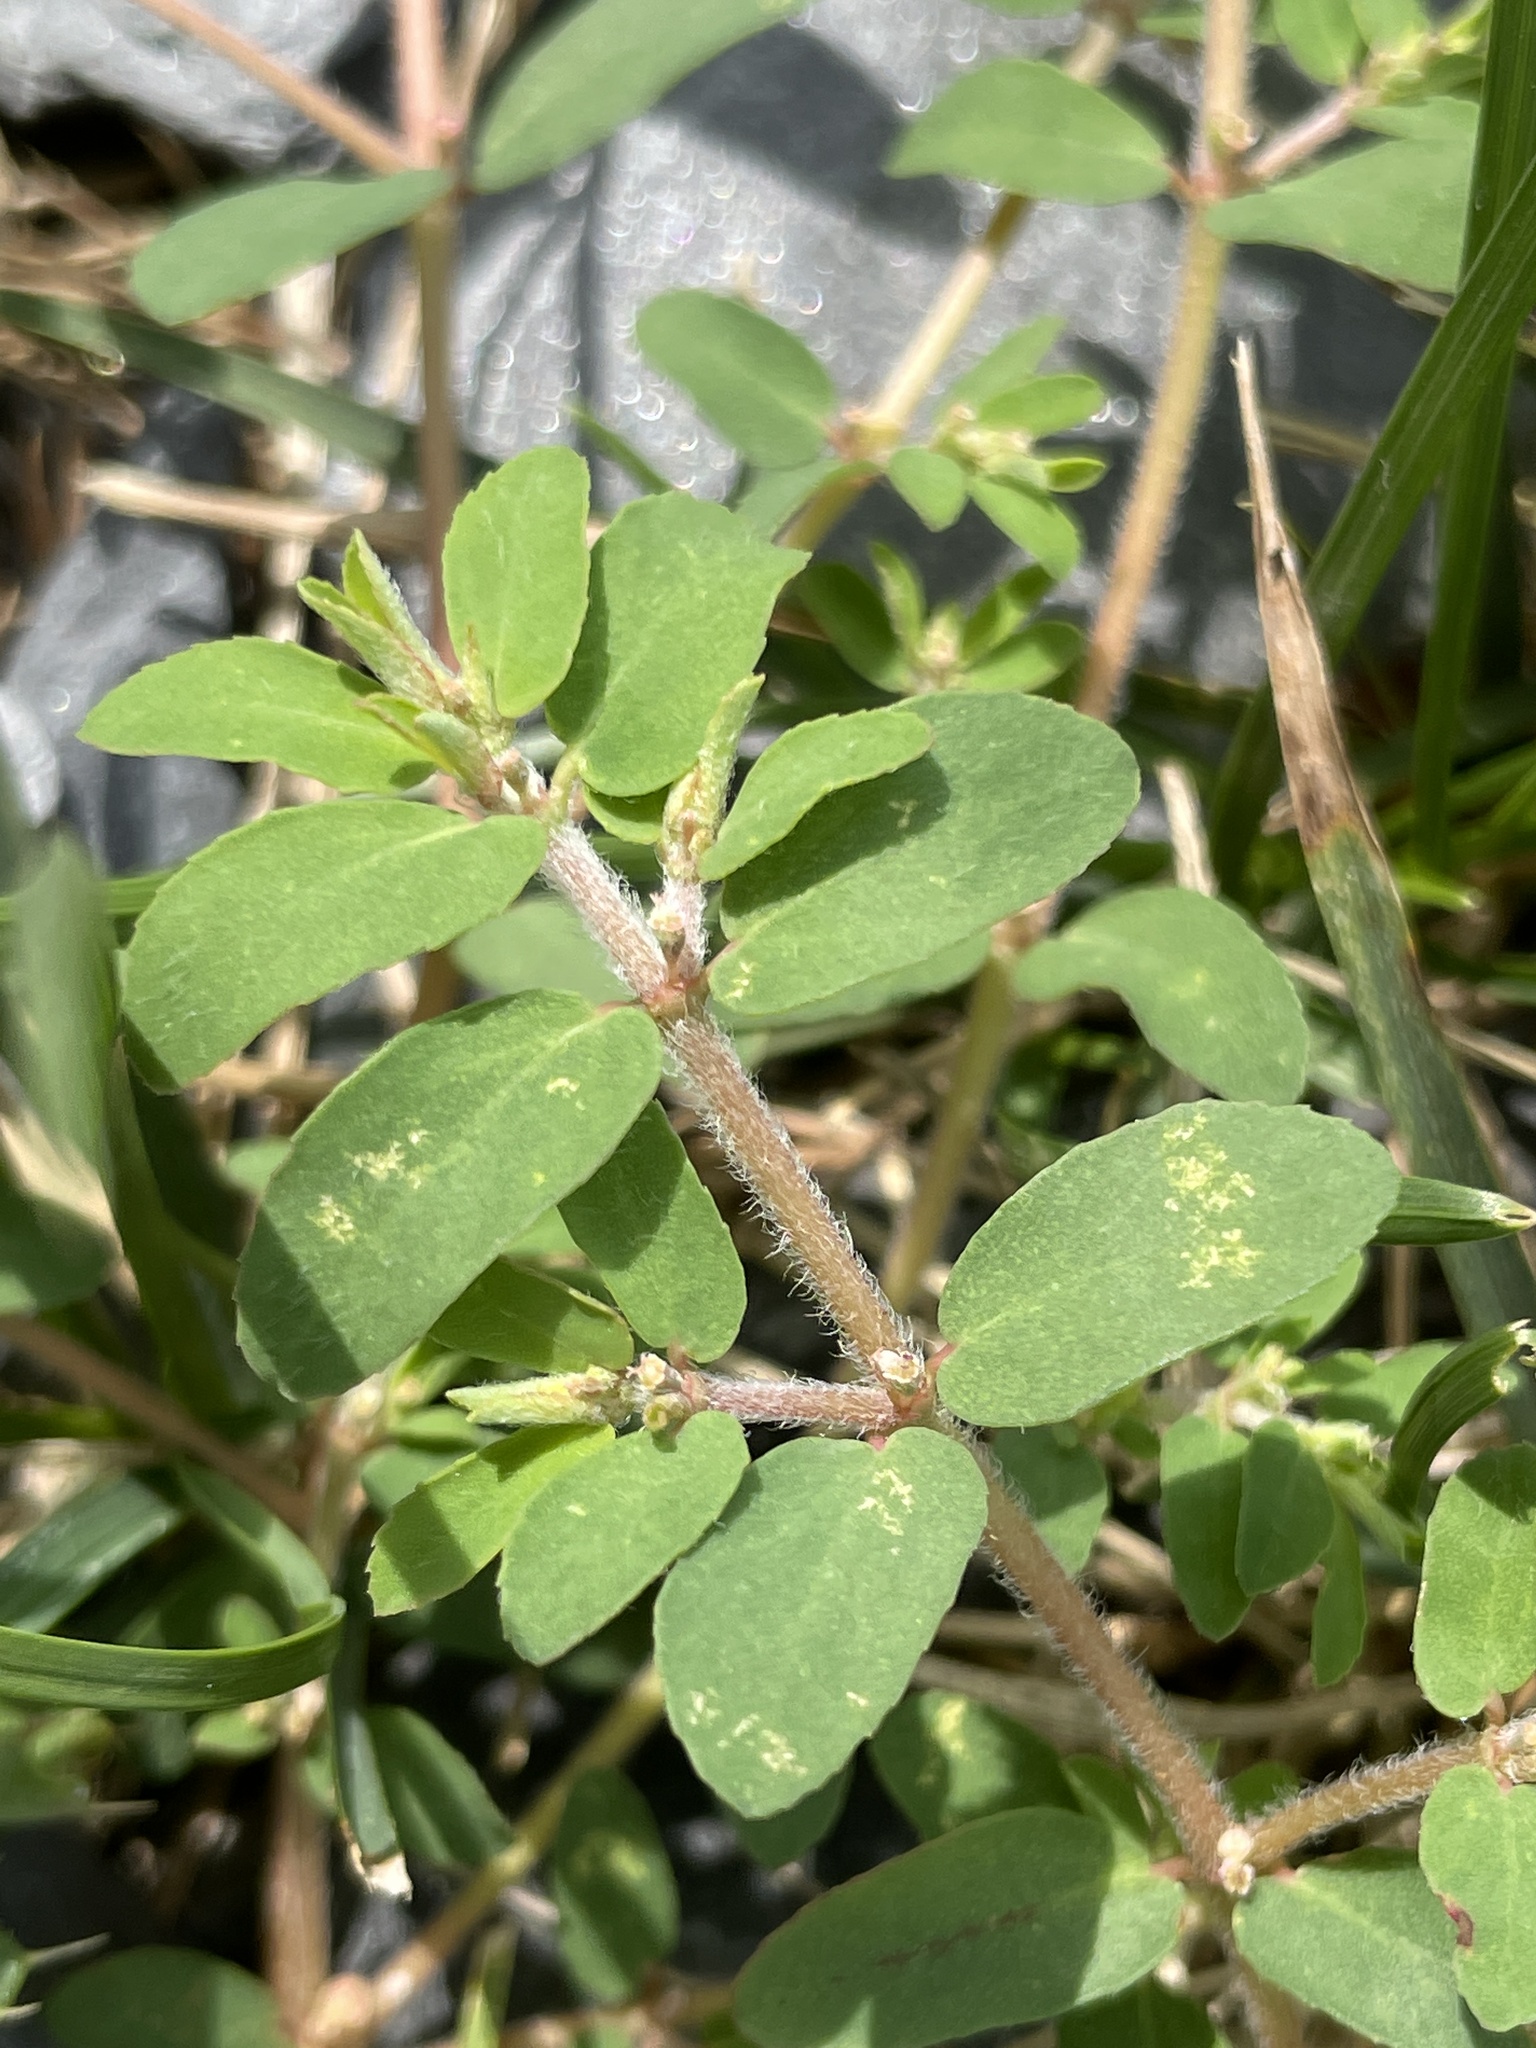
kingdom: Plantae
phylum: Tracheophyta
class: Magnoliopsida
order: Malpighiales
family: Euphorbiaceae
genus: Euphorbia
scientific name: Euphorbia maculata
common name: Spotted spurge
